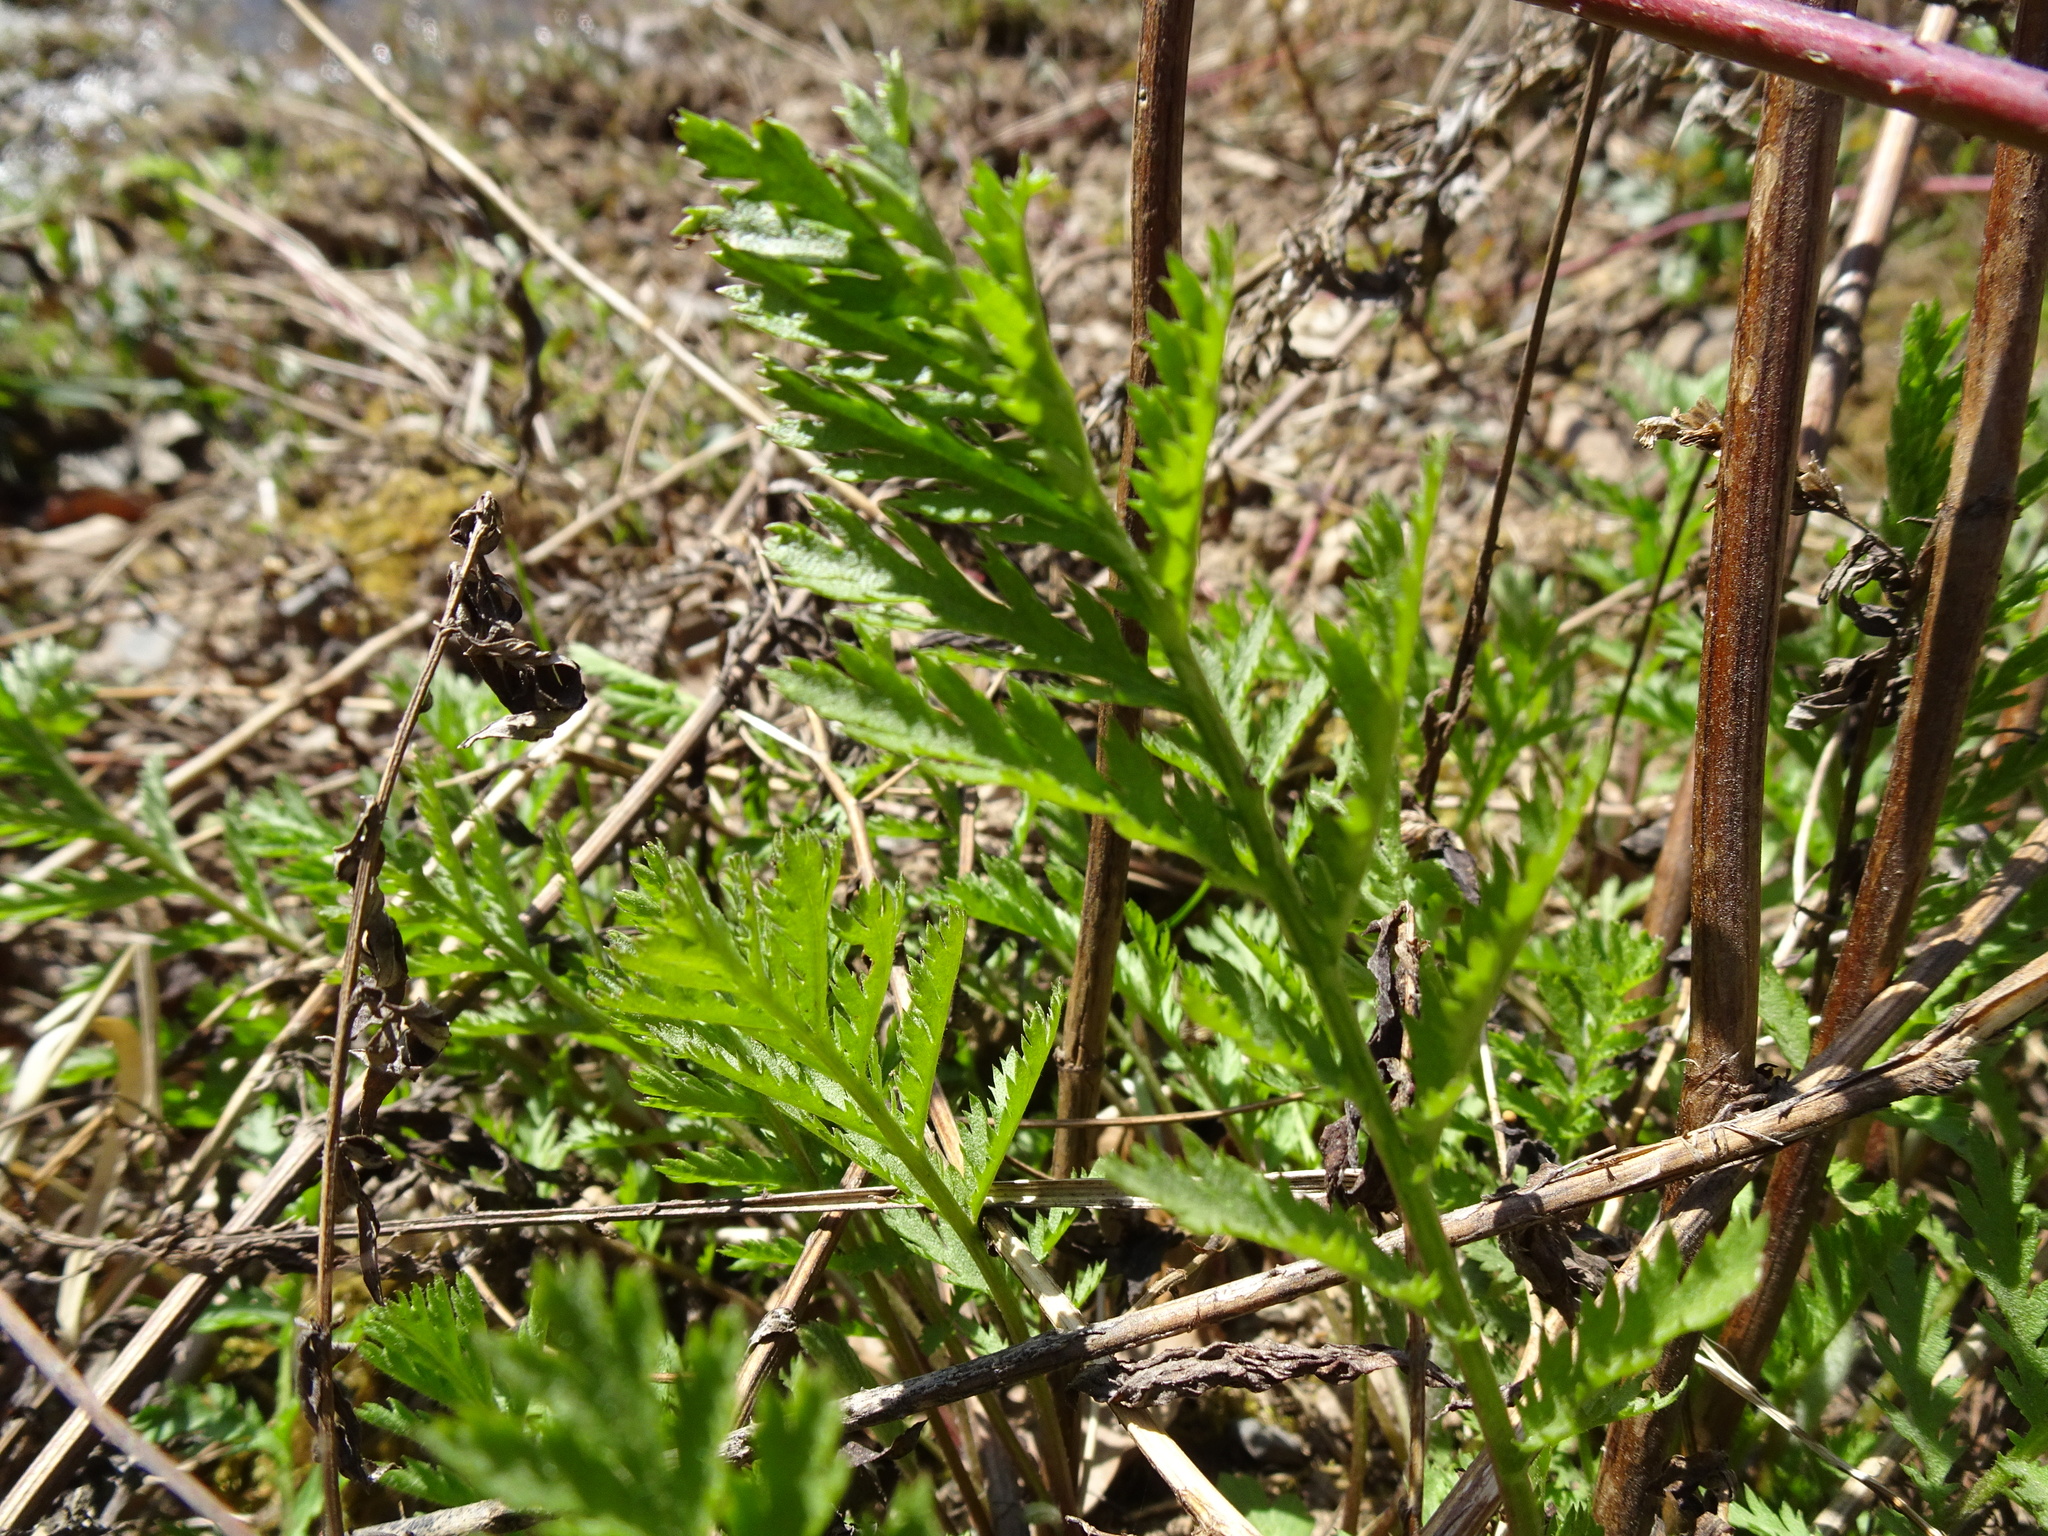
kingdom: Plantae
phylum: Tracheophyta
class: Magnoliopsida
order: Asterales
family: Asteraceae
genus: Tanacetum
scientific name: Tanacetum vulgare
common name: Common tansy
